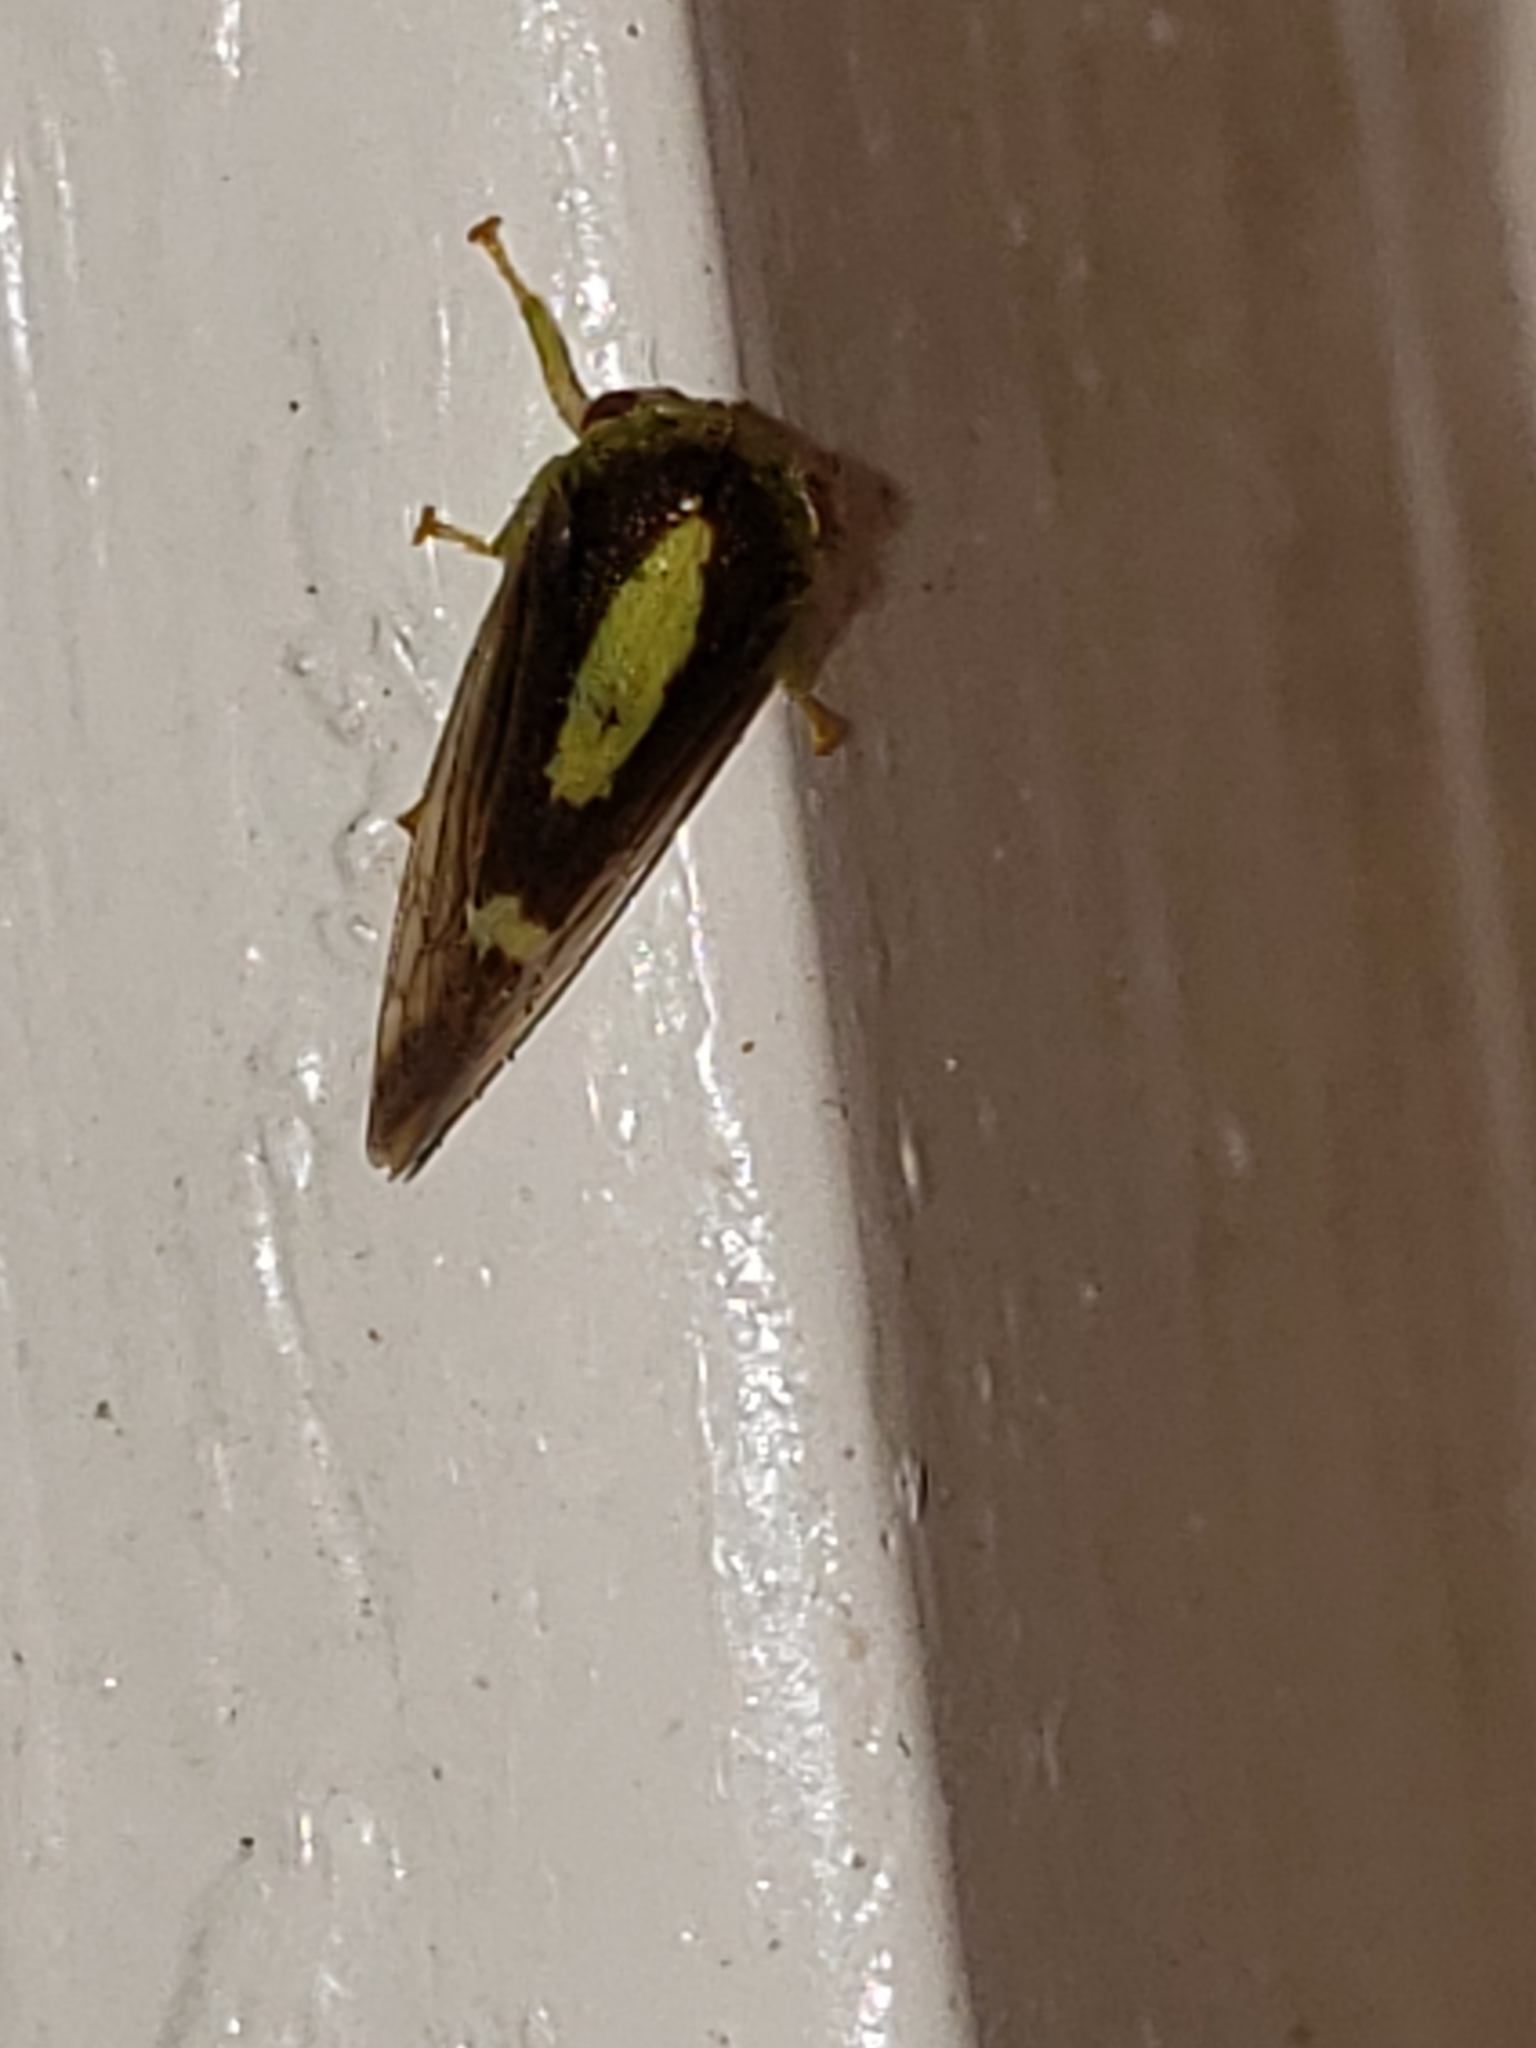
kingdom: Animalia
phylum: Arthropoda
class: Insecta
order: Hemiptera
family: Membracidae
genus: Atymna
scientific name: Atymna querci
